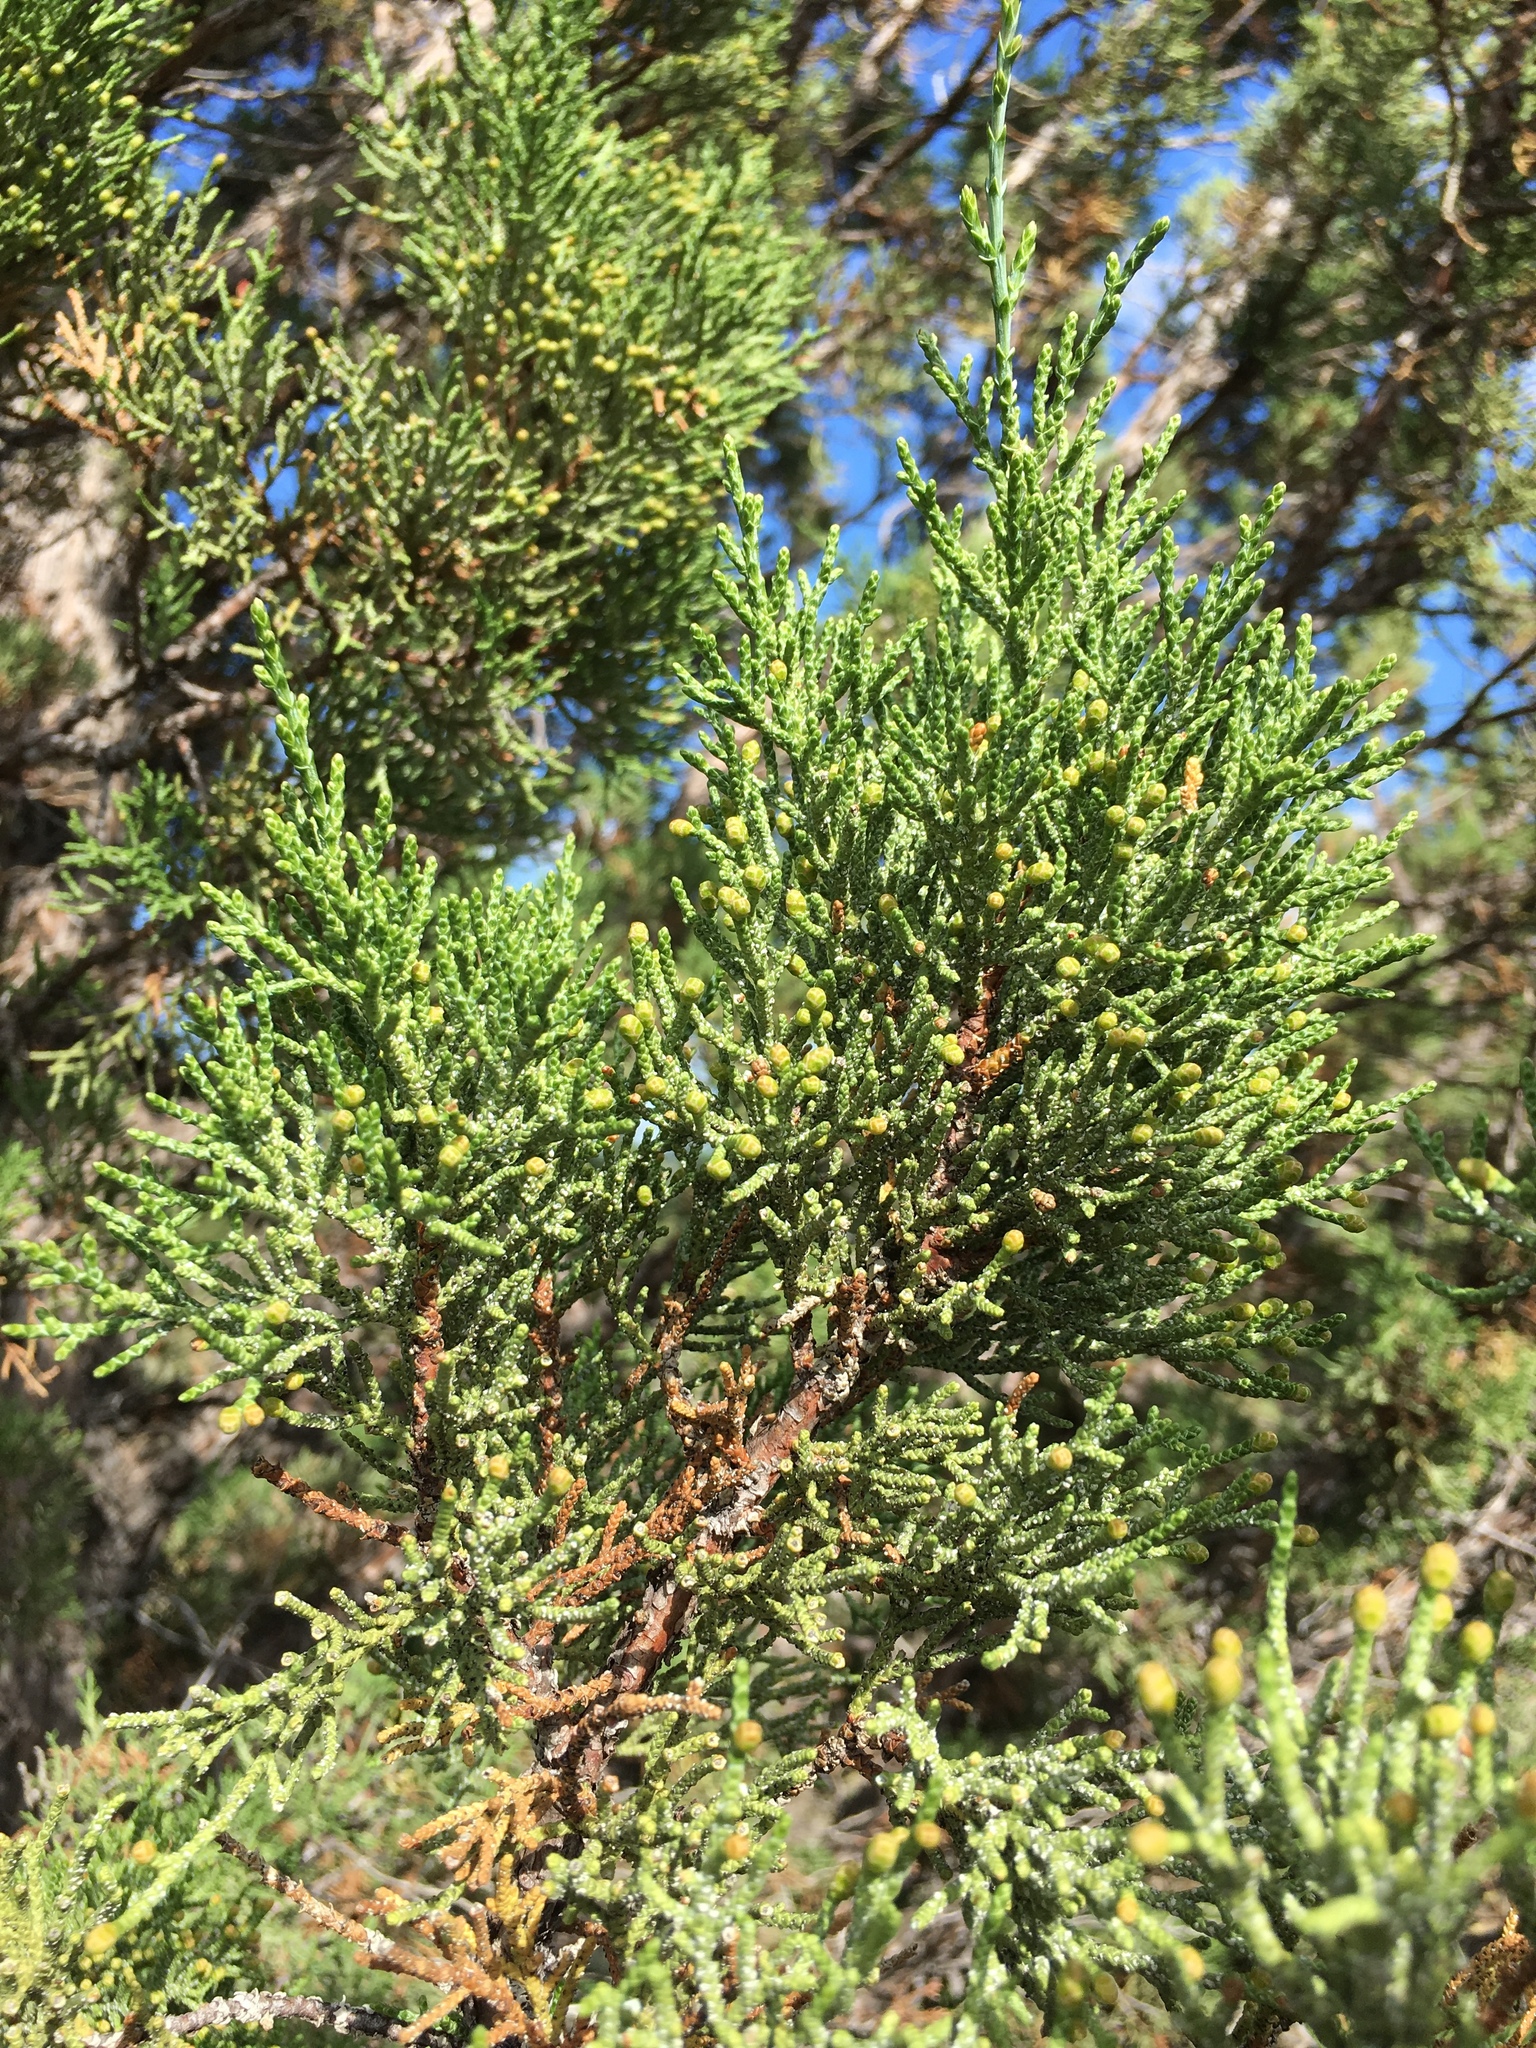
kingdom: Plantae
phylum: Tracheophyta
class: Pinopsida
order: Pinales
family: Cupressaceae
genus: Juniperus
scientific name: Juniperus occidentalis
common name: Western juniper
